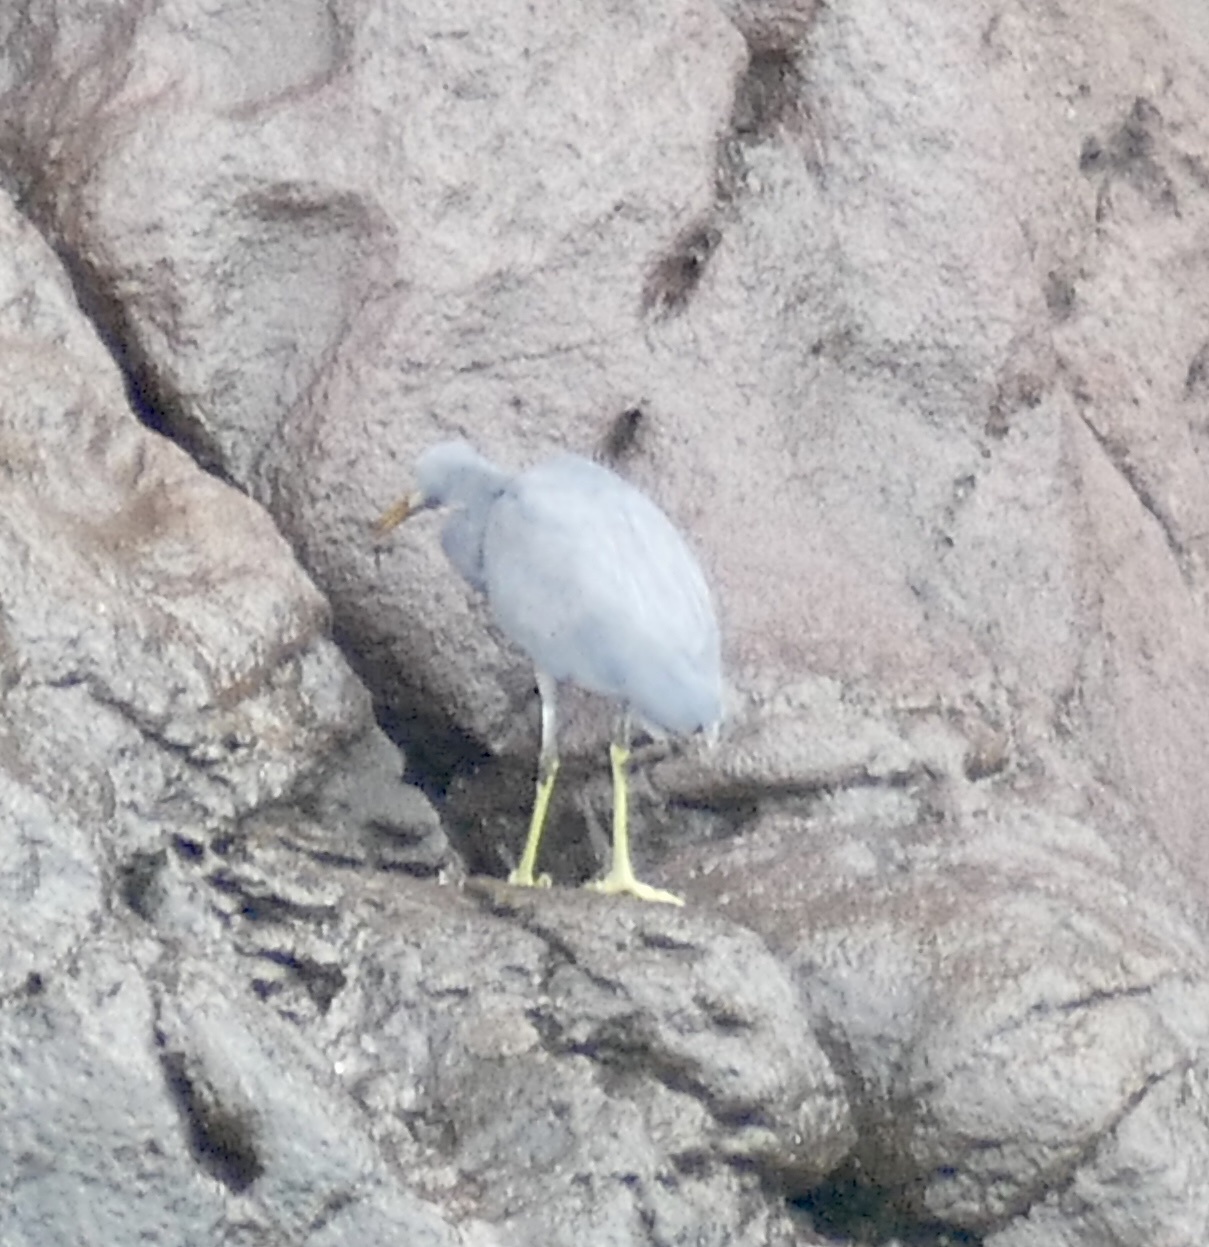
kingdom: Animalia
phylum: Chordata
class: Aves
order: Pelecaniformes
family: Ardeidae
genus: Egretta
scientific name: Egretta sacra
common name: Pacific reef heron
